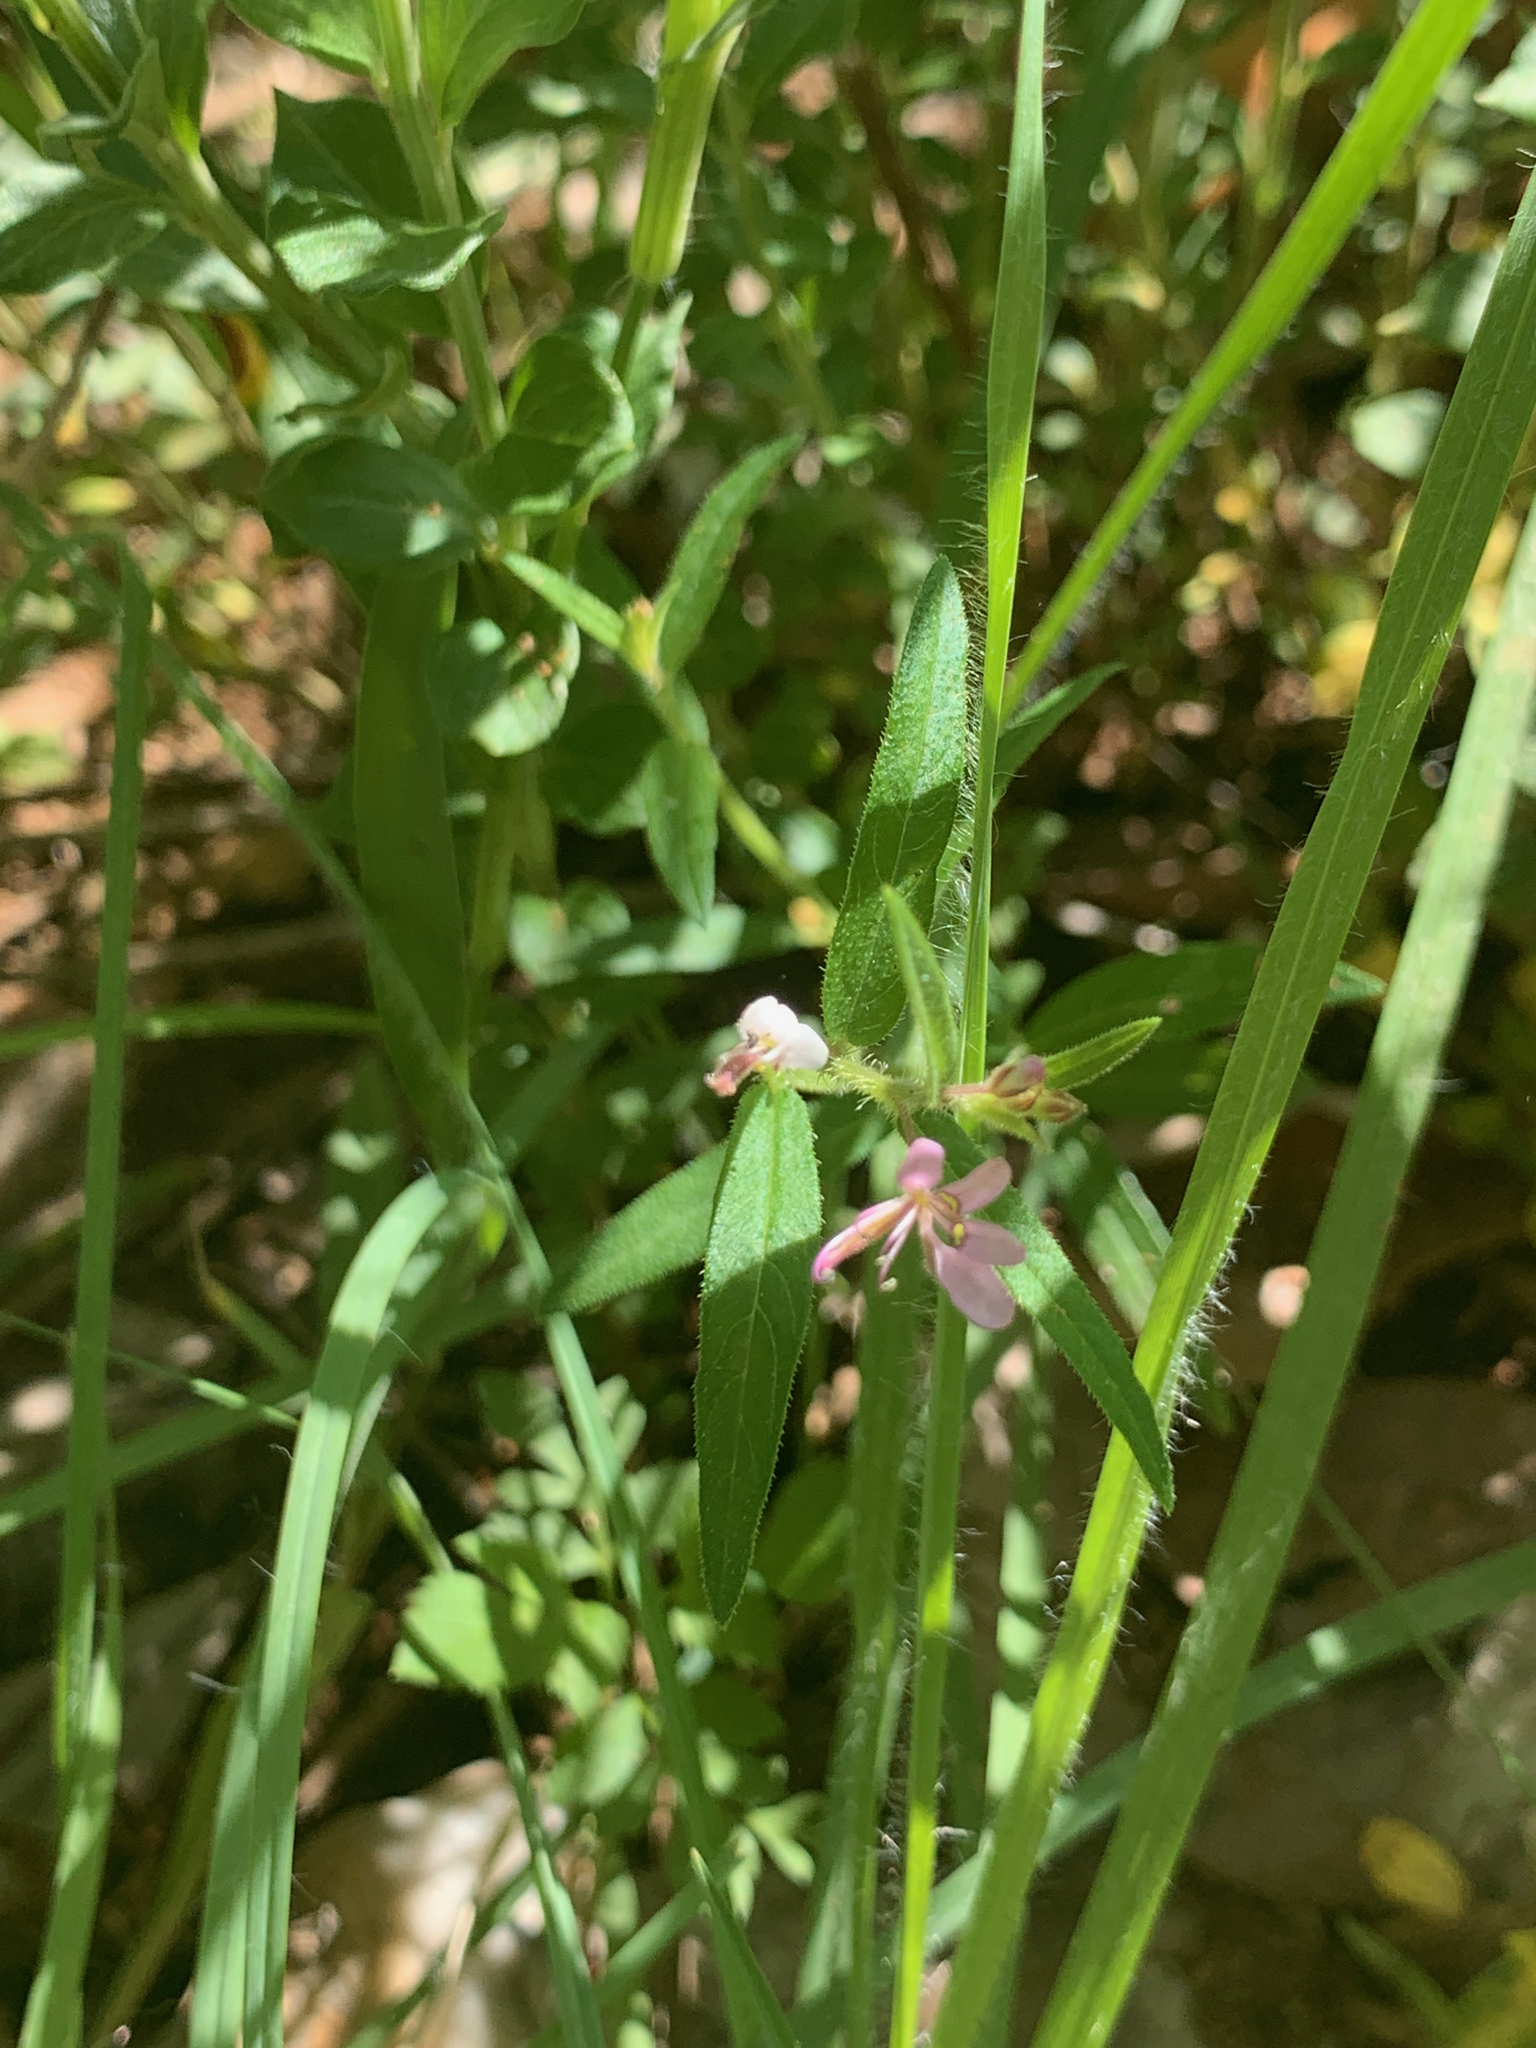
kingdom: Plantae
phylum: Tracheophyta
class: Magnoliopsida
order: Brassicales
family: Cleomaceae
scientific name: Cleomaceae
